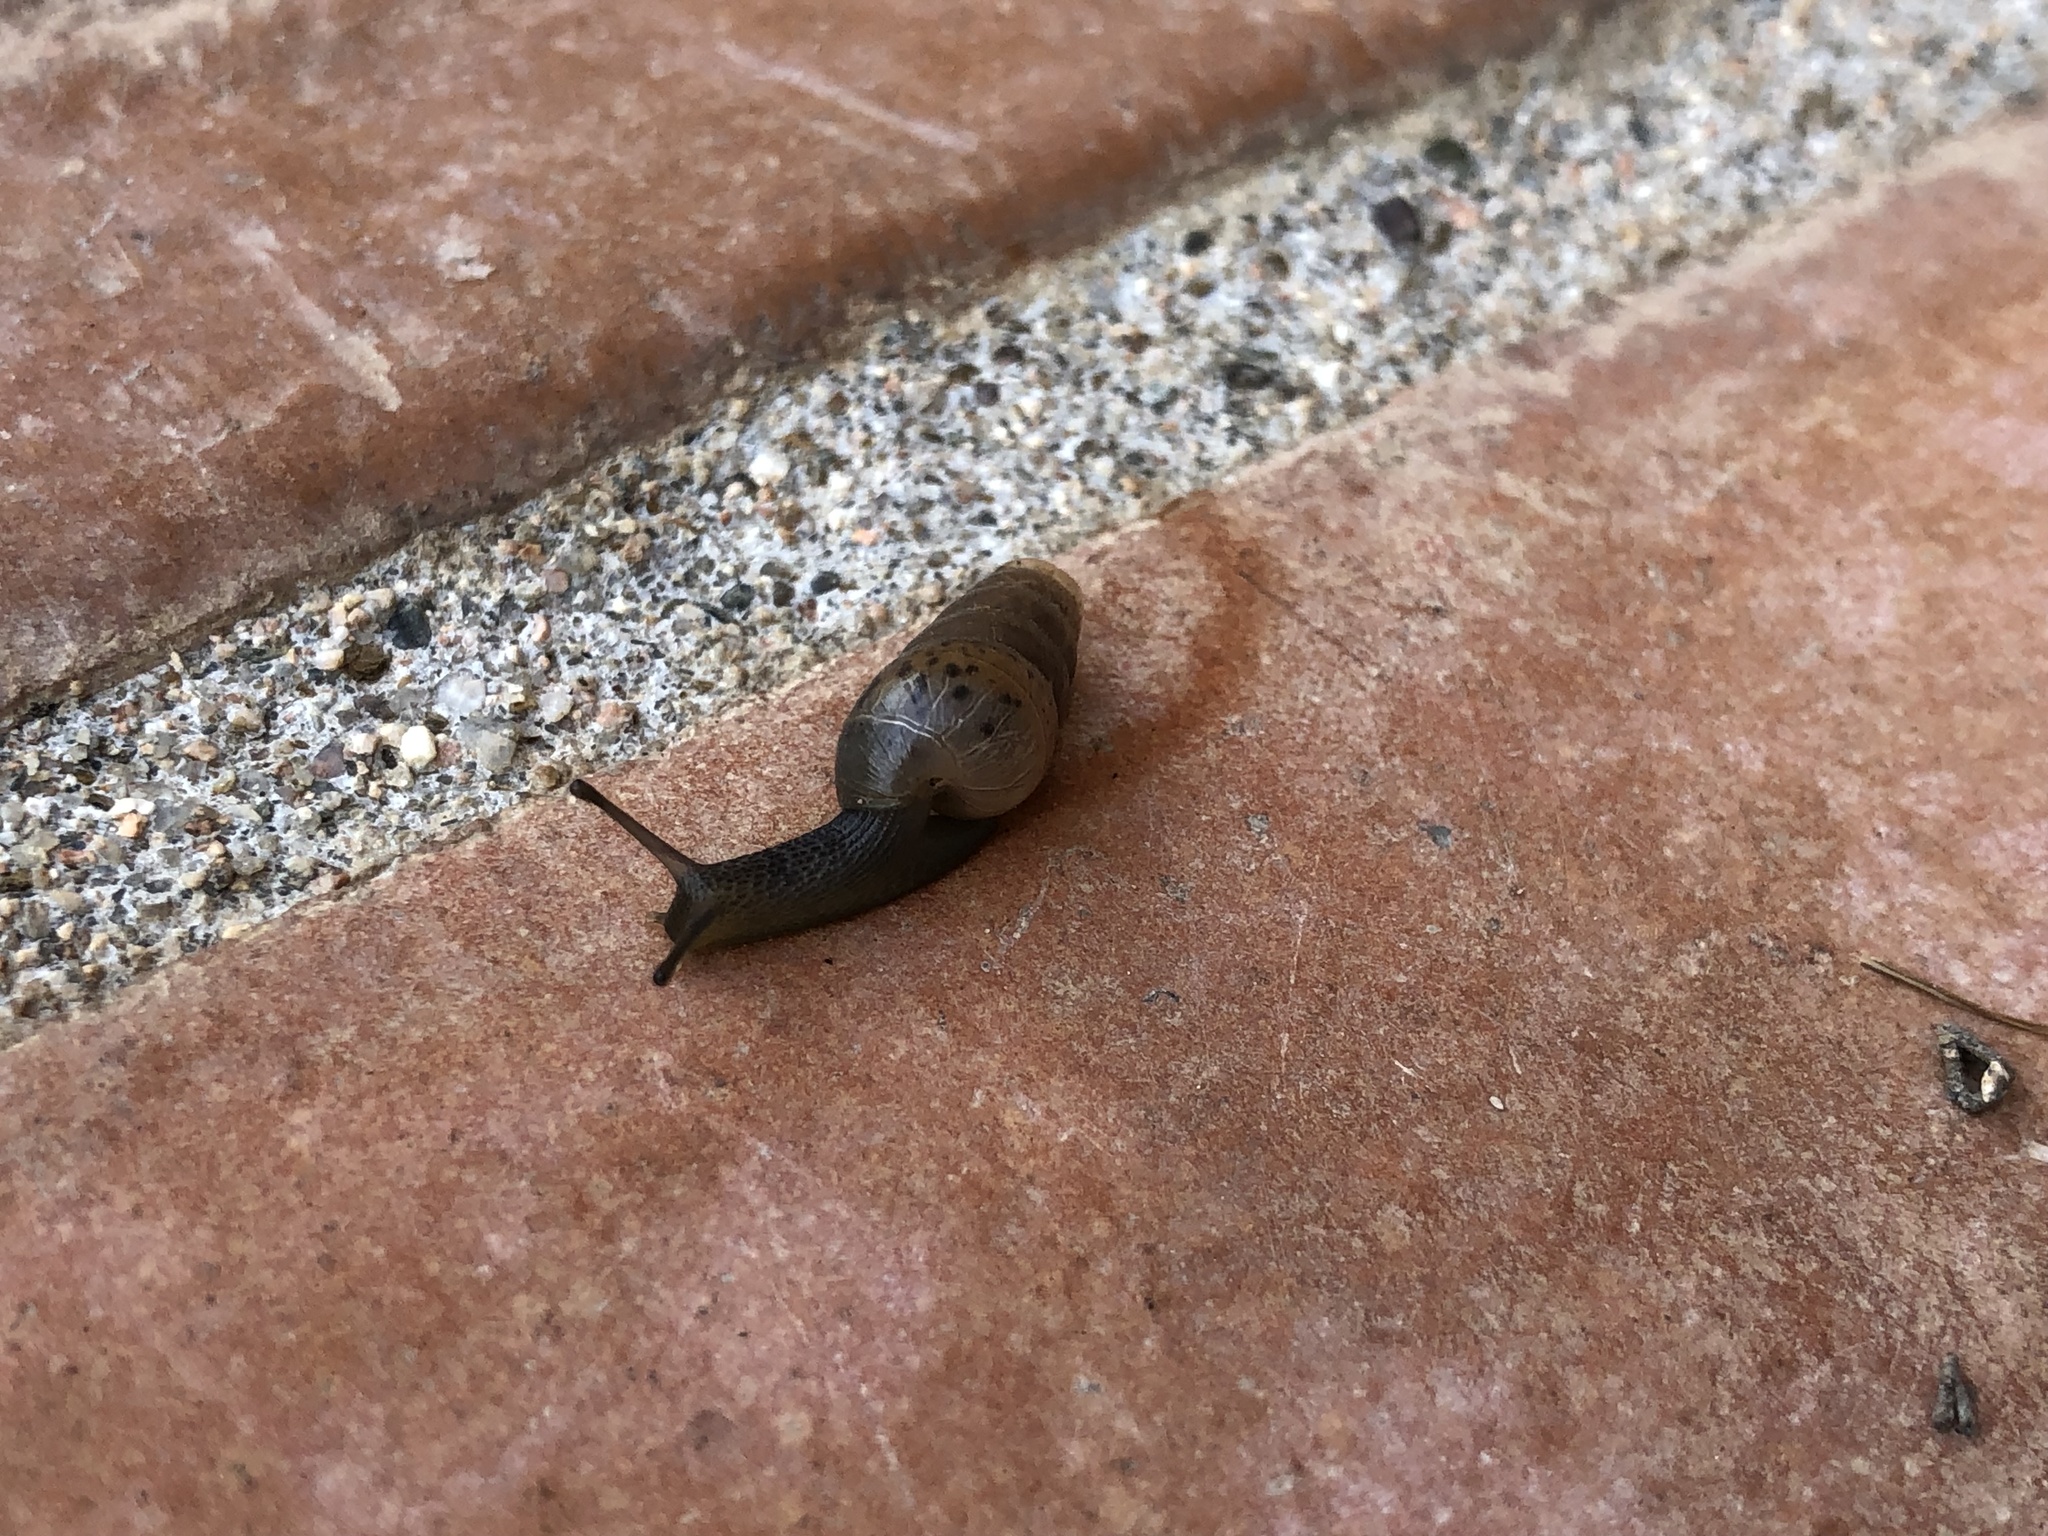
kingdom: Animalia
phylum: Mollusca
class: Gastropoda
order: Stylommatophora
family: Achatinidae
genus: Rumina
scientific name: Rumina decollata
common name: Decollate snail
